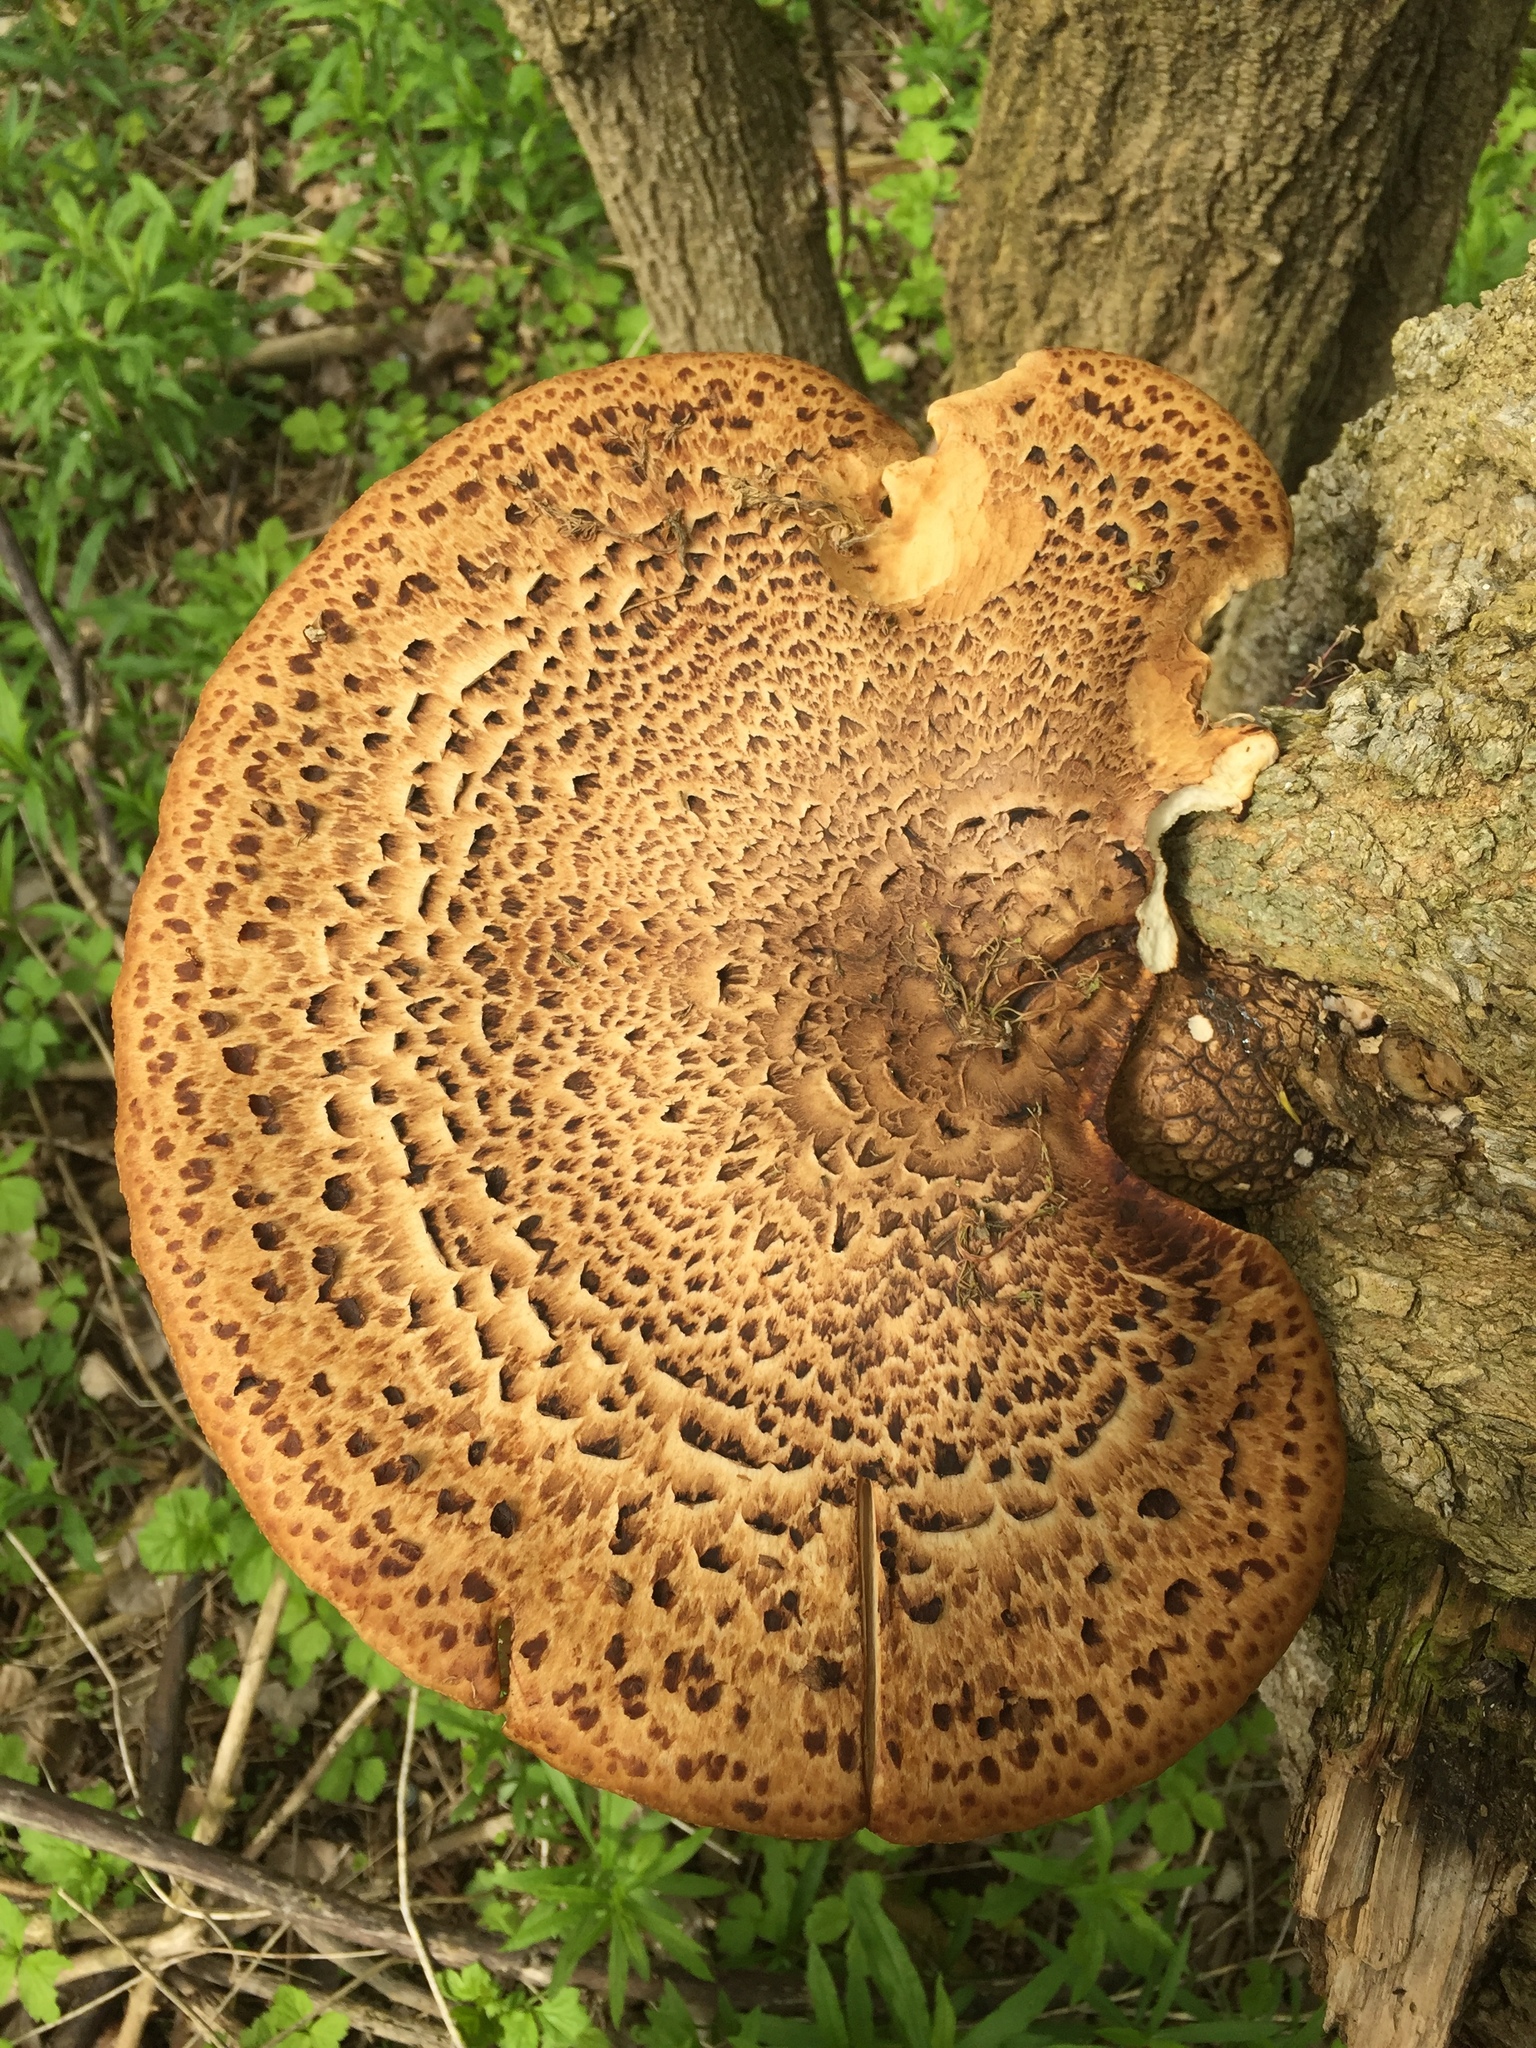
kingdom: Fungi
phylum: Basidiomycota
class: Agaricomycetes
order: Polyporales
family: Polyporaceae
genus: Cerioporus
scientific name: Cerioporus squamosus
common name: Dryad's saddle
